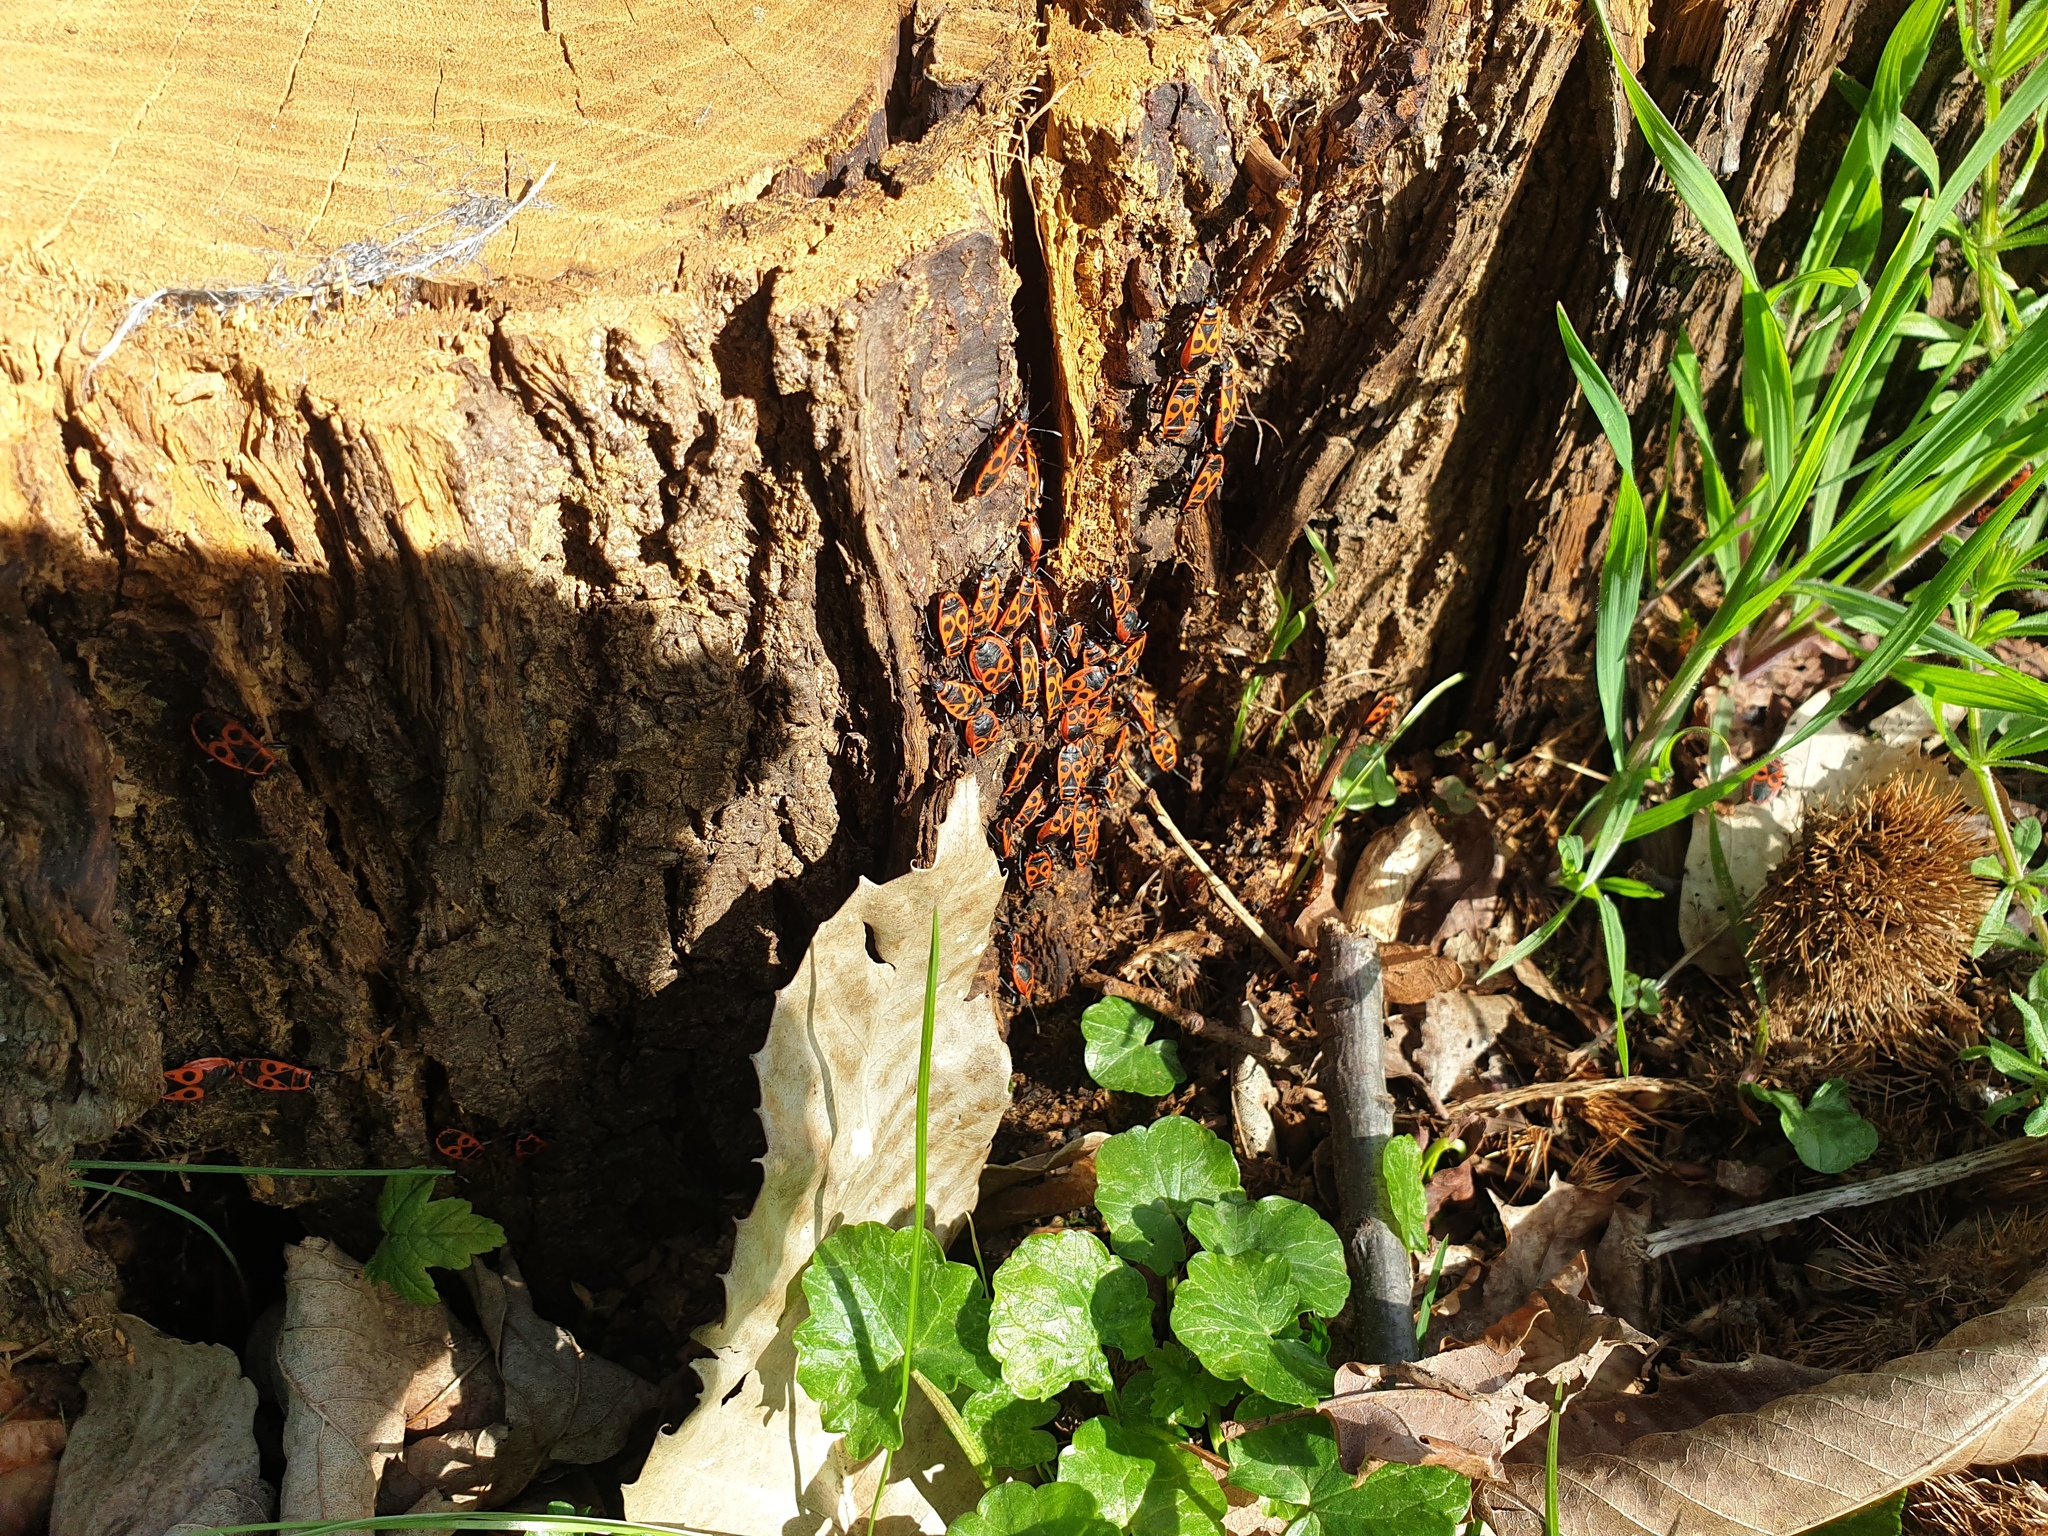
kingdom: Animalia
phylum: Arthropoda
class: Insecta
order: Hemiptera
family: Pyrrhocoridae
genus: Pyrrhocoris
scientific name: Pyrrhocoris apterus
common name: Firebug
